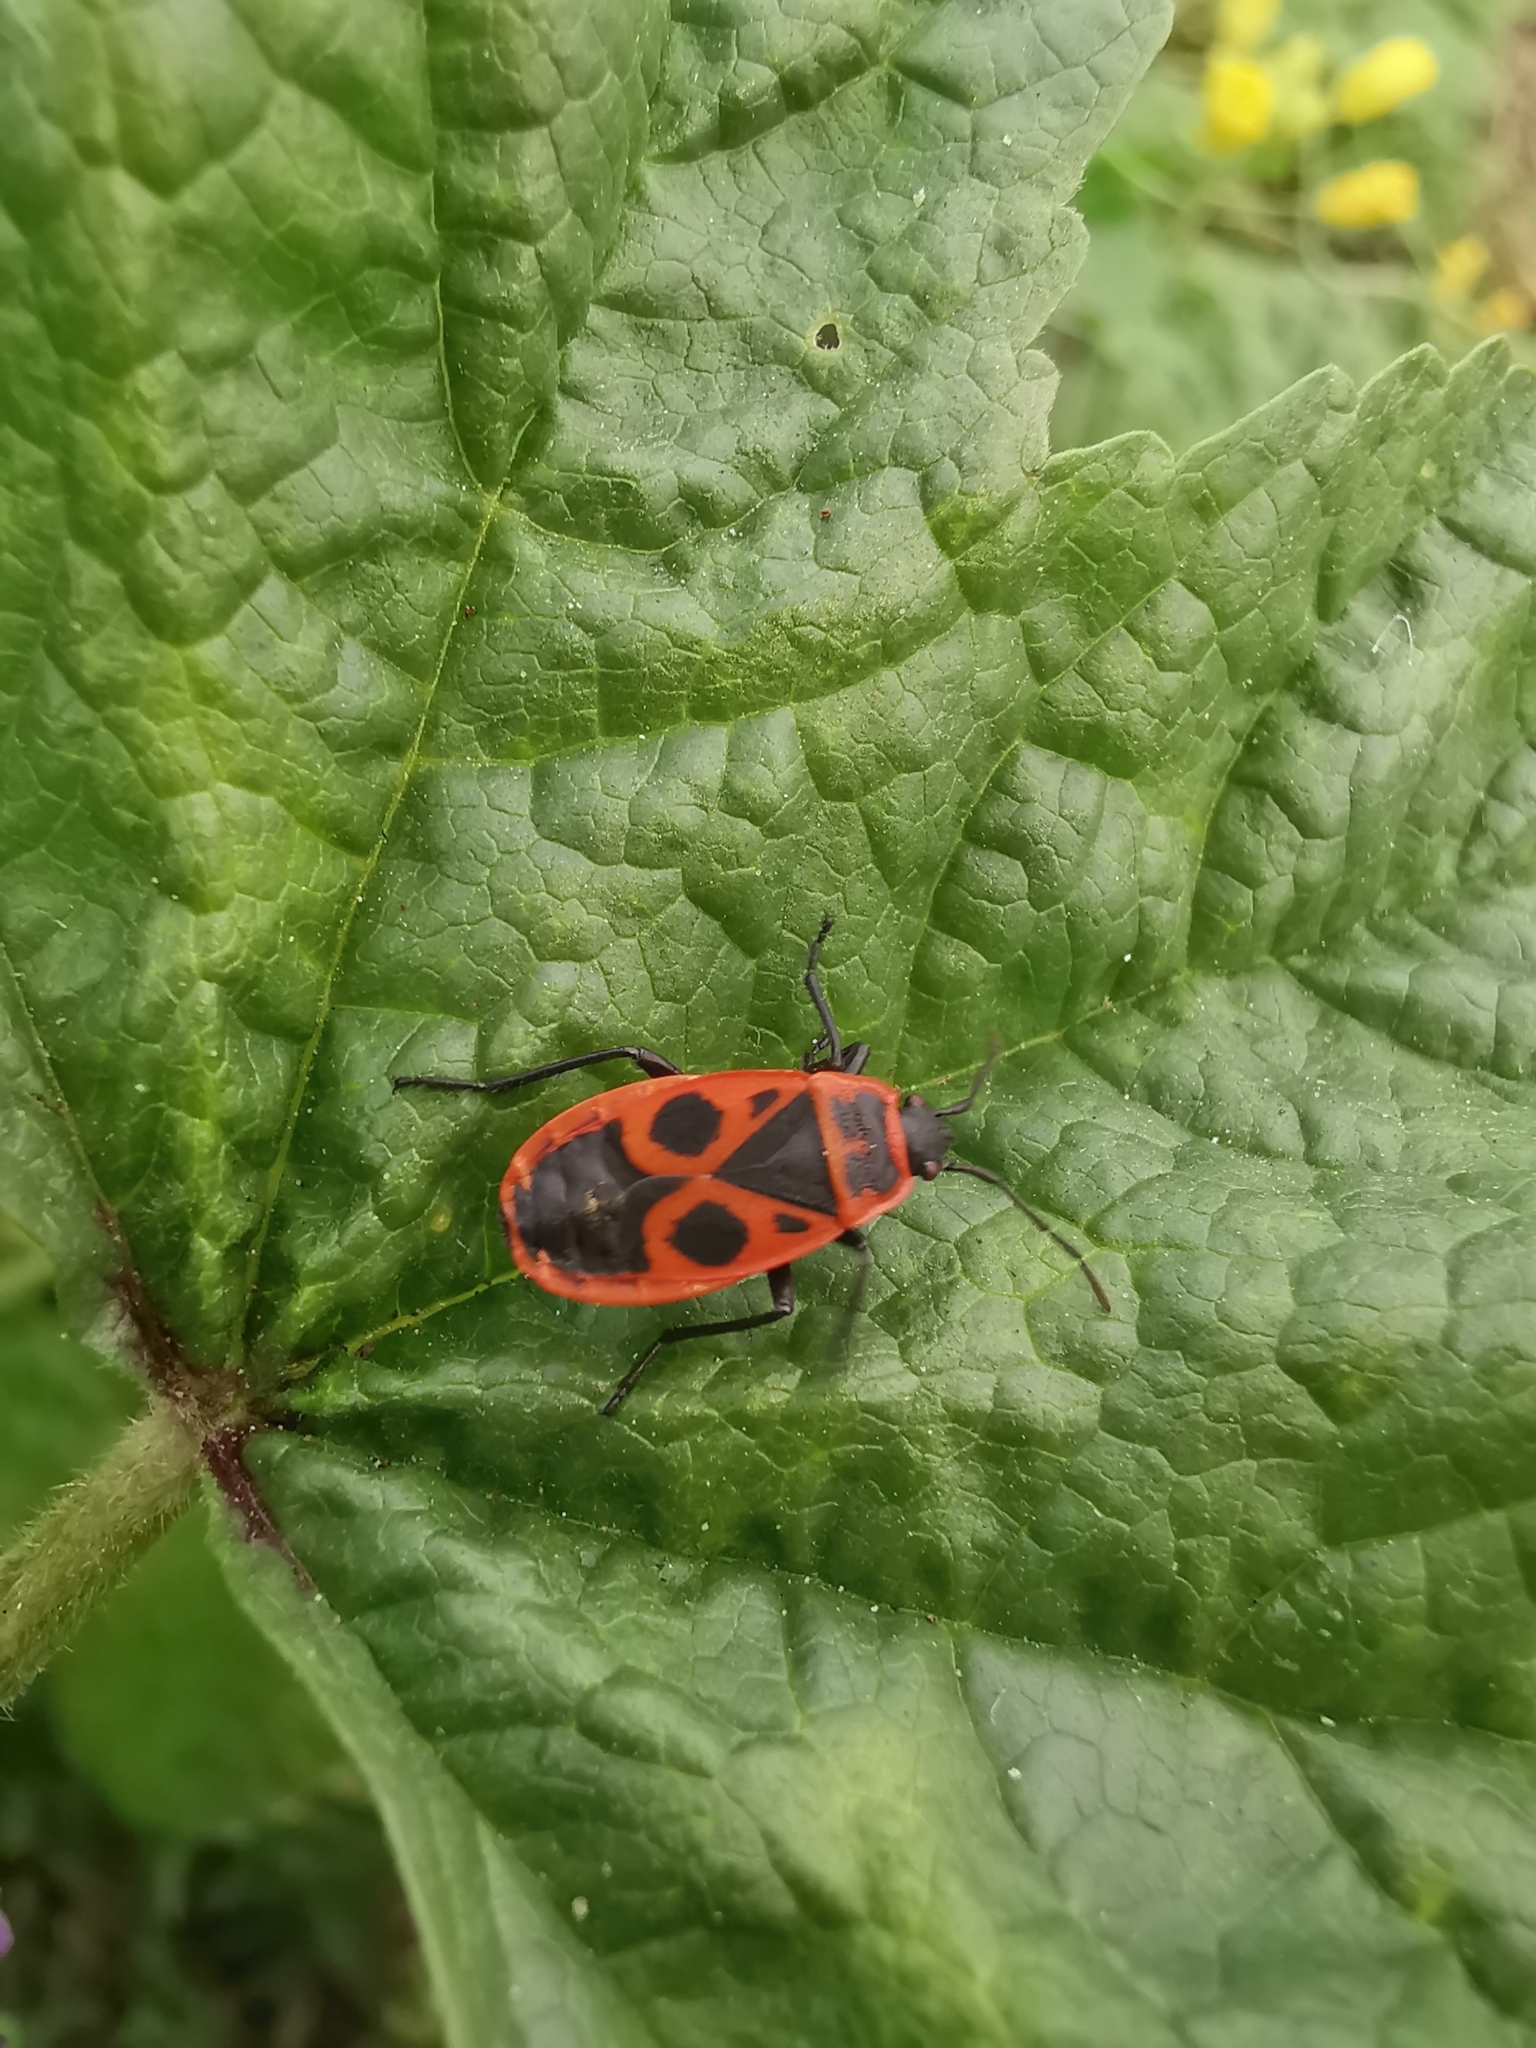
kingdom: Animalia
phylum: Arthropoda
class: Insecta
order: Hemiptera
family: Pyrrhocoridae
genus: Pyrrhocoris
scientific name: Pyrrhocoris apterus
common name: Firebug
